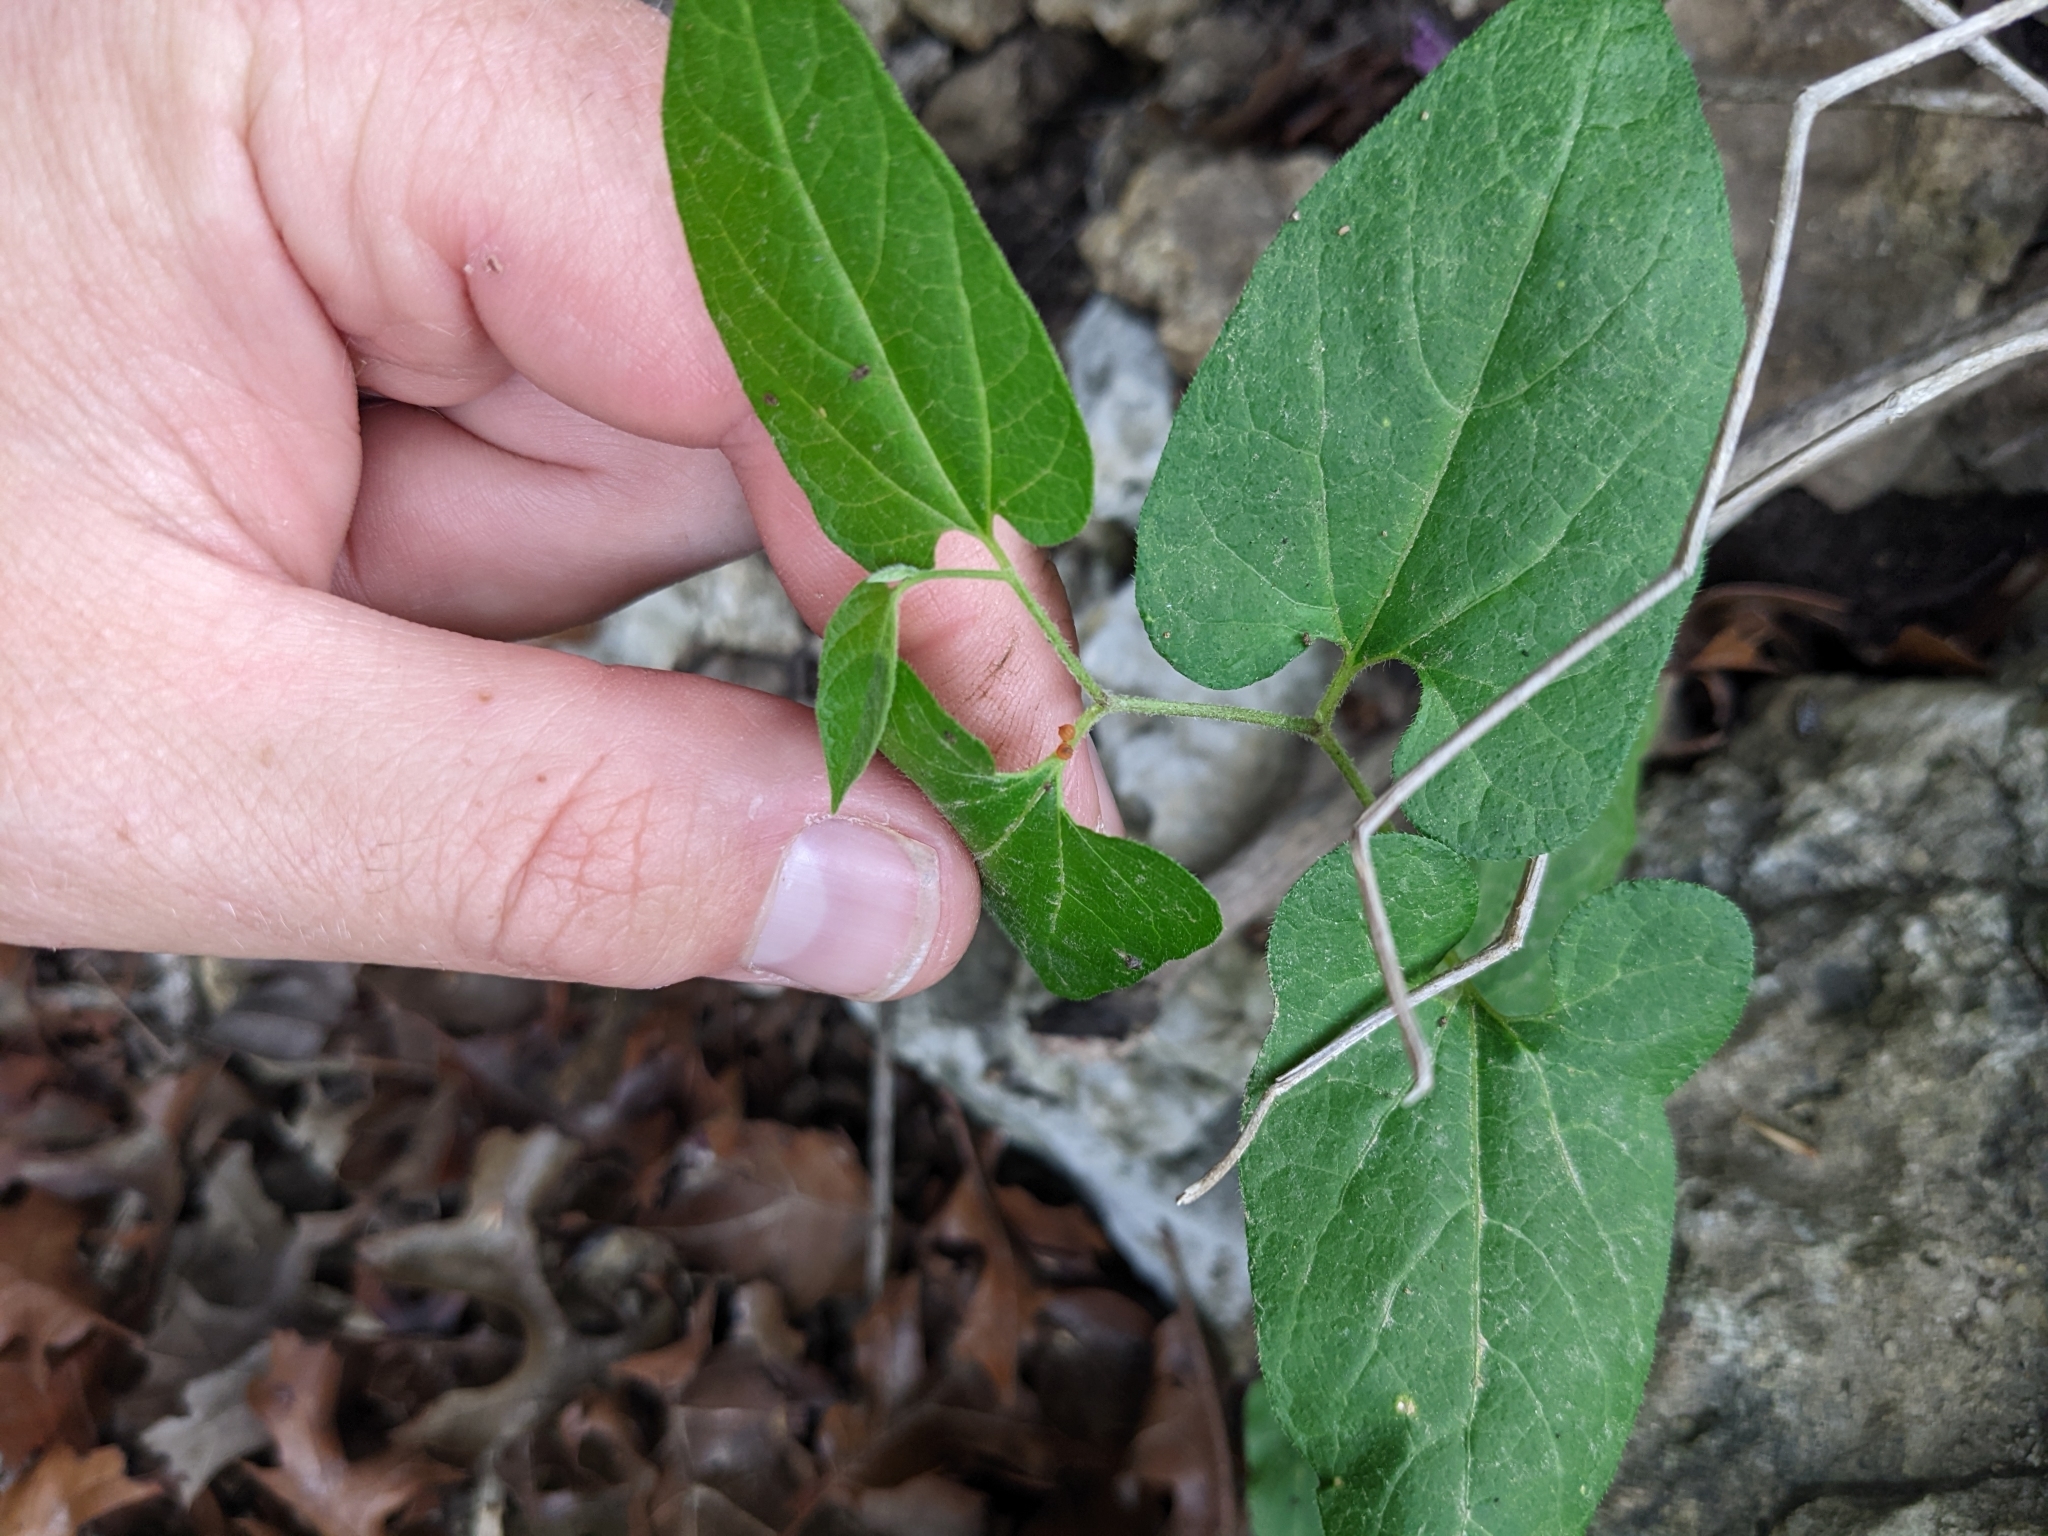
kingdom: Animalia
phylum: Arthropoda
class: Insecta
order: Lepidoptera
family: Papilionidae
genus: Battus
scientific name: Battus philenor
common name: Pipevine swallowtail
